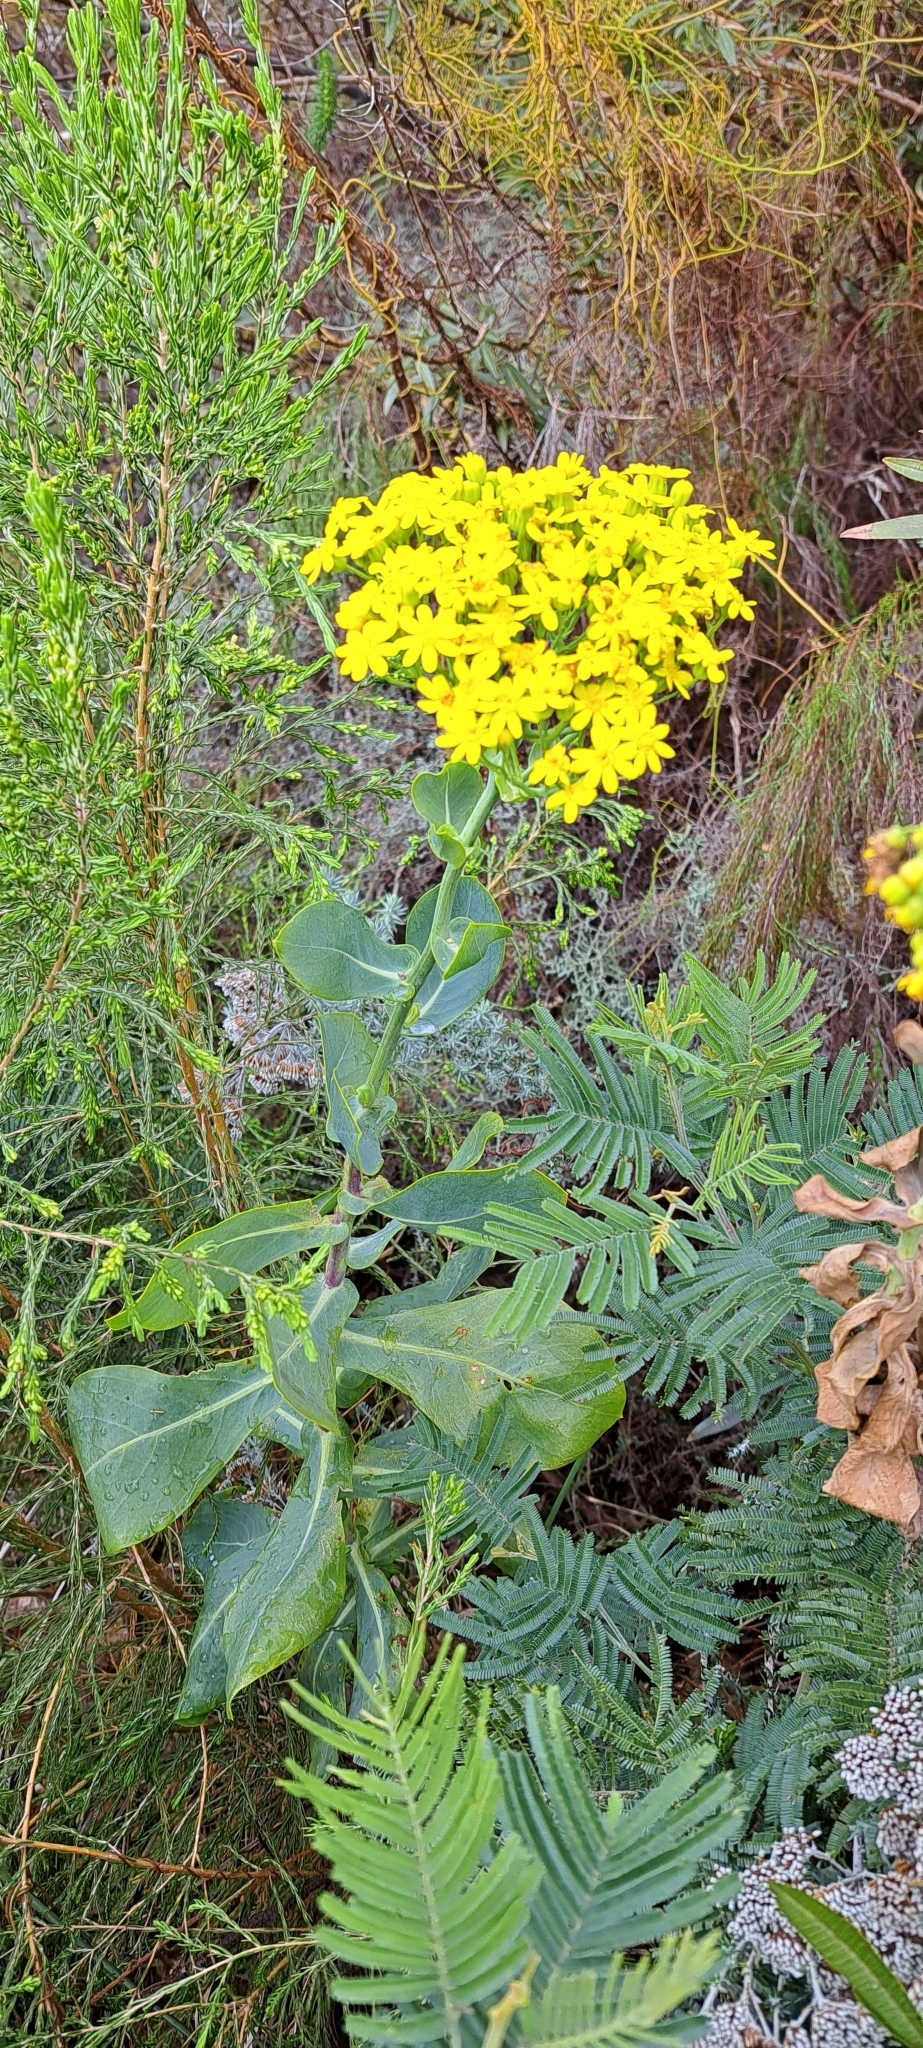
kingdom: Plantae
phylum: Tracheophyta
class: Magnoliopsida
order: Asterales
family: Asteraceae
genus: Othonna
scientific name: Othonna parviflora
